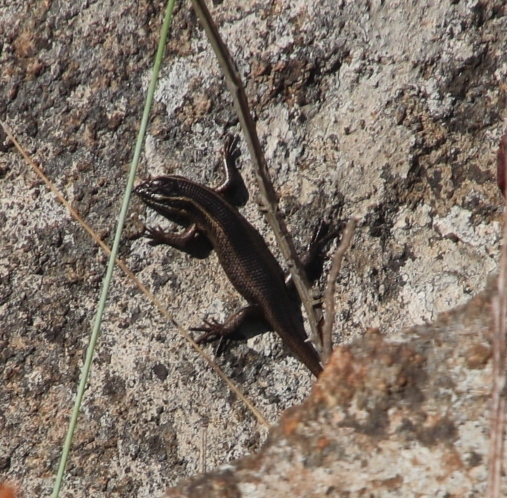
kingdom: Animalia
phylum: Chordata
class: Squamata
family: Scincidae
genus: Trachylepis
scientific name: Trachylepis striata
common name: African striped mabuya
